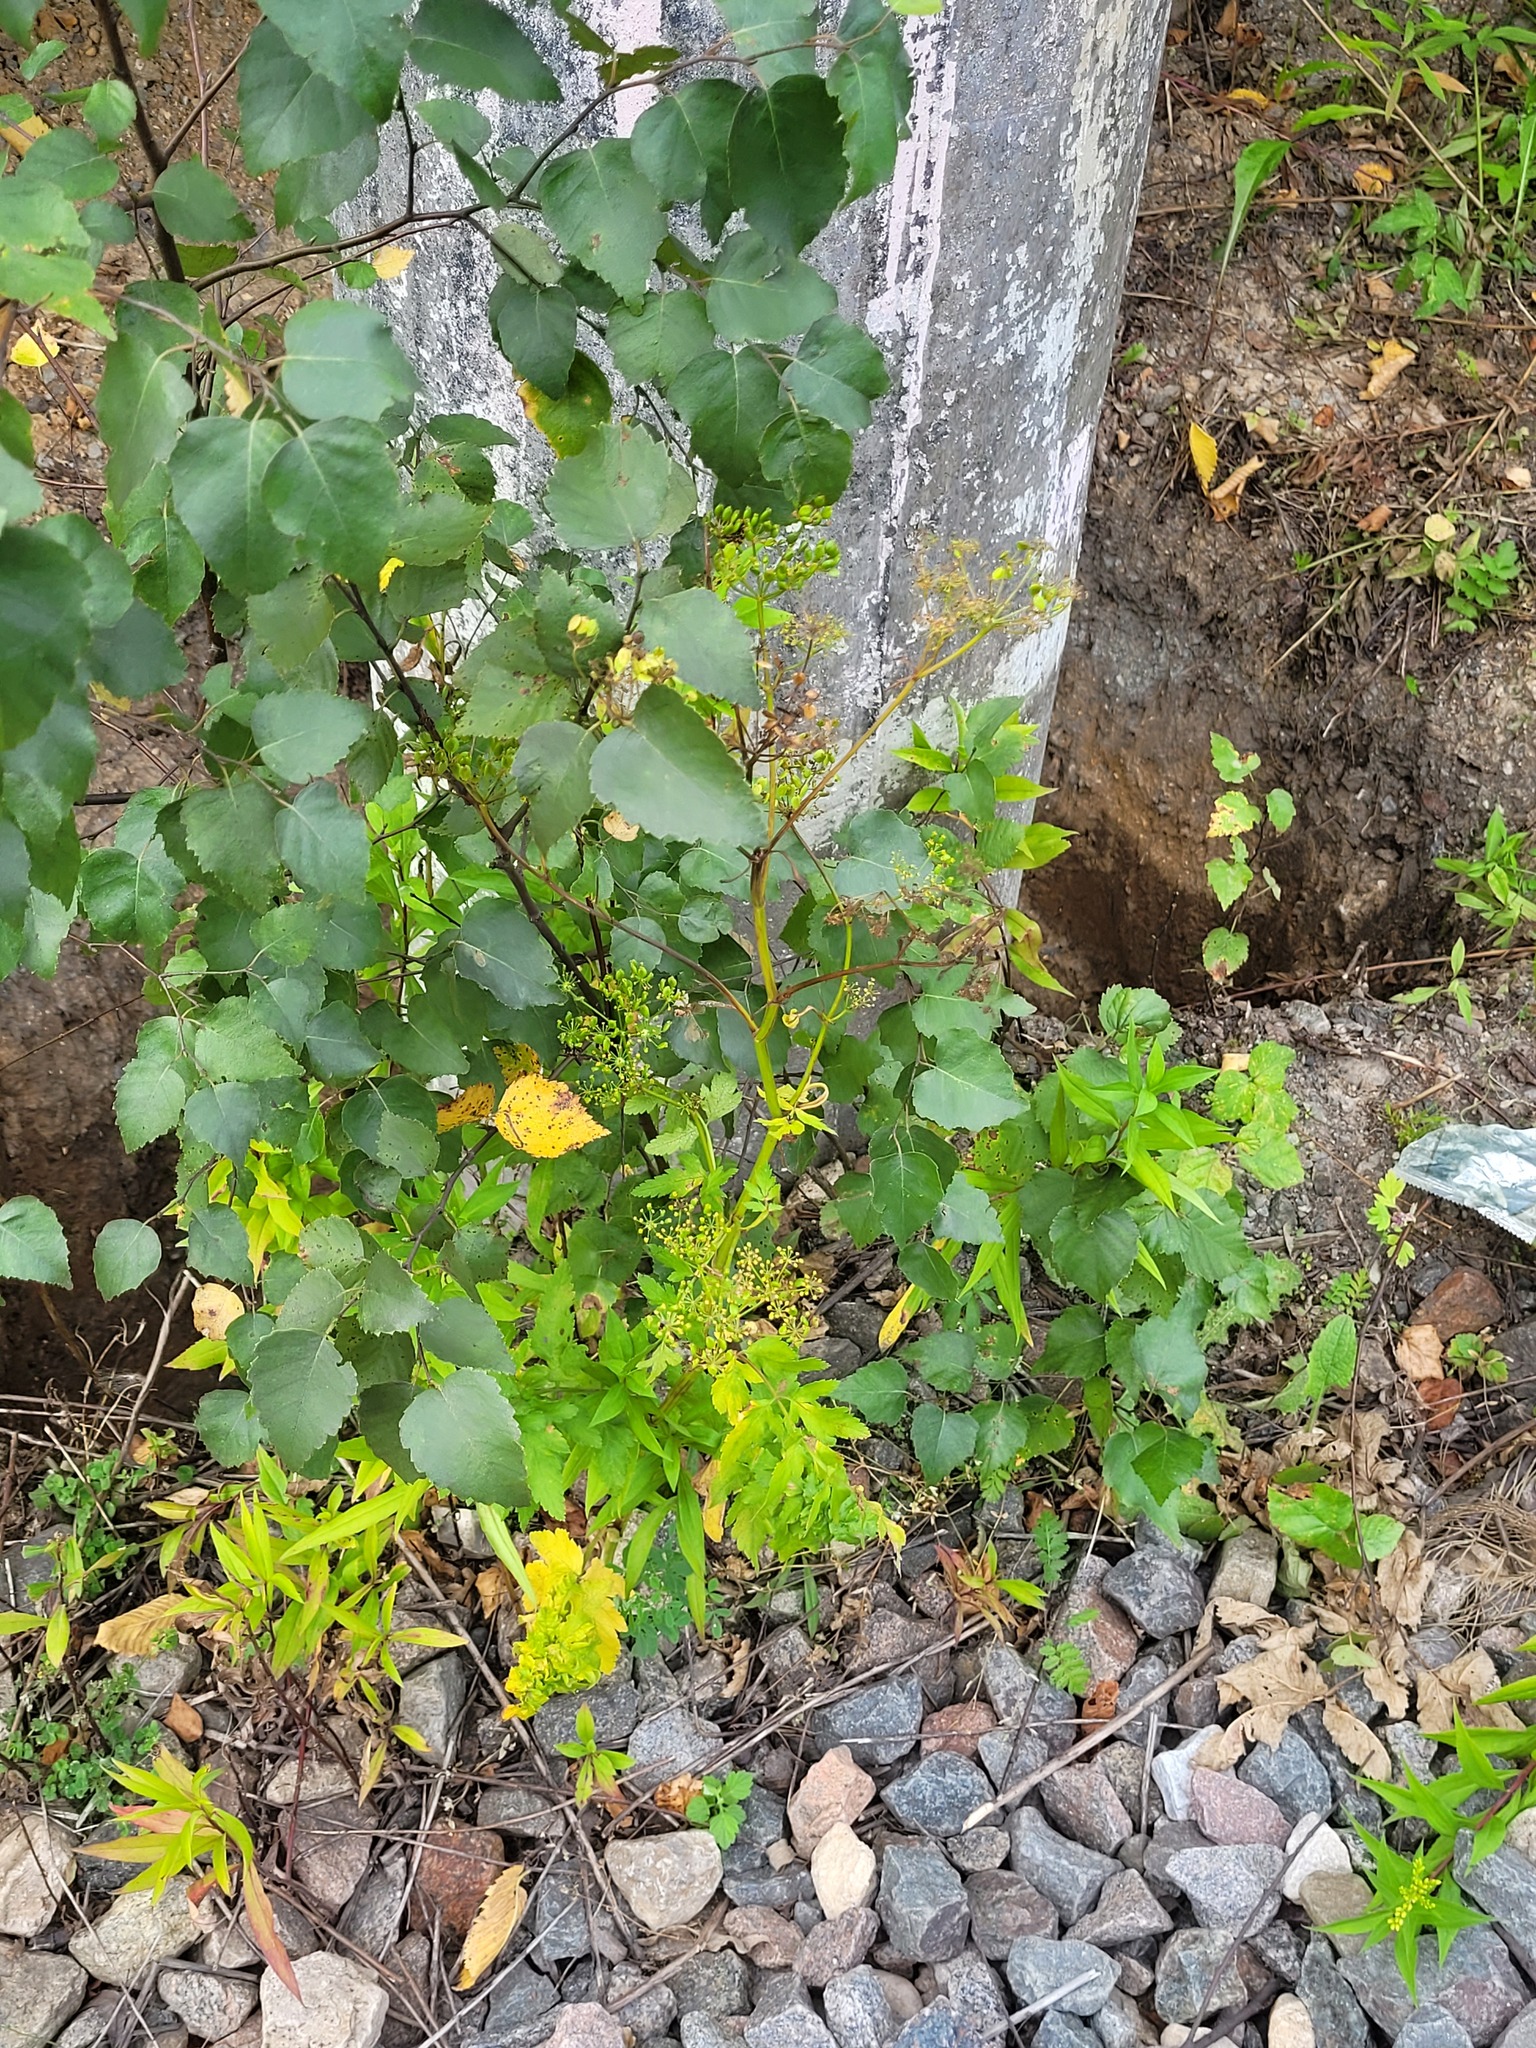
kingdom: Plantae
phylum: Tracheophyta
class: Magnoliopsida
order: Apiales
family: Apiaceae
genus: Pastinaca
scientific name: Pastinaca sativa
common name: Wild parsnip
